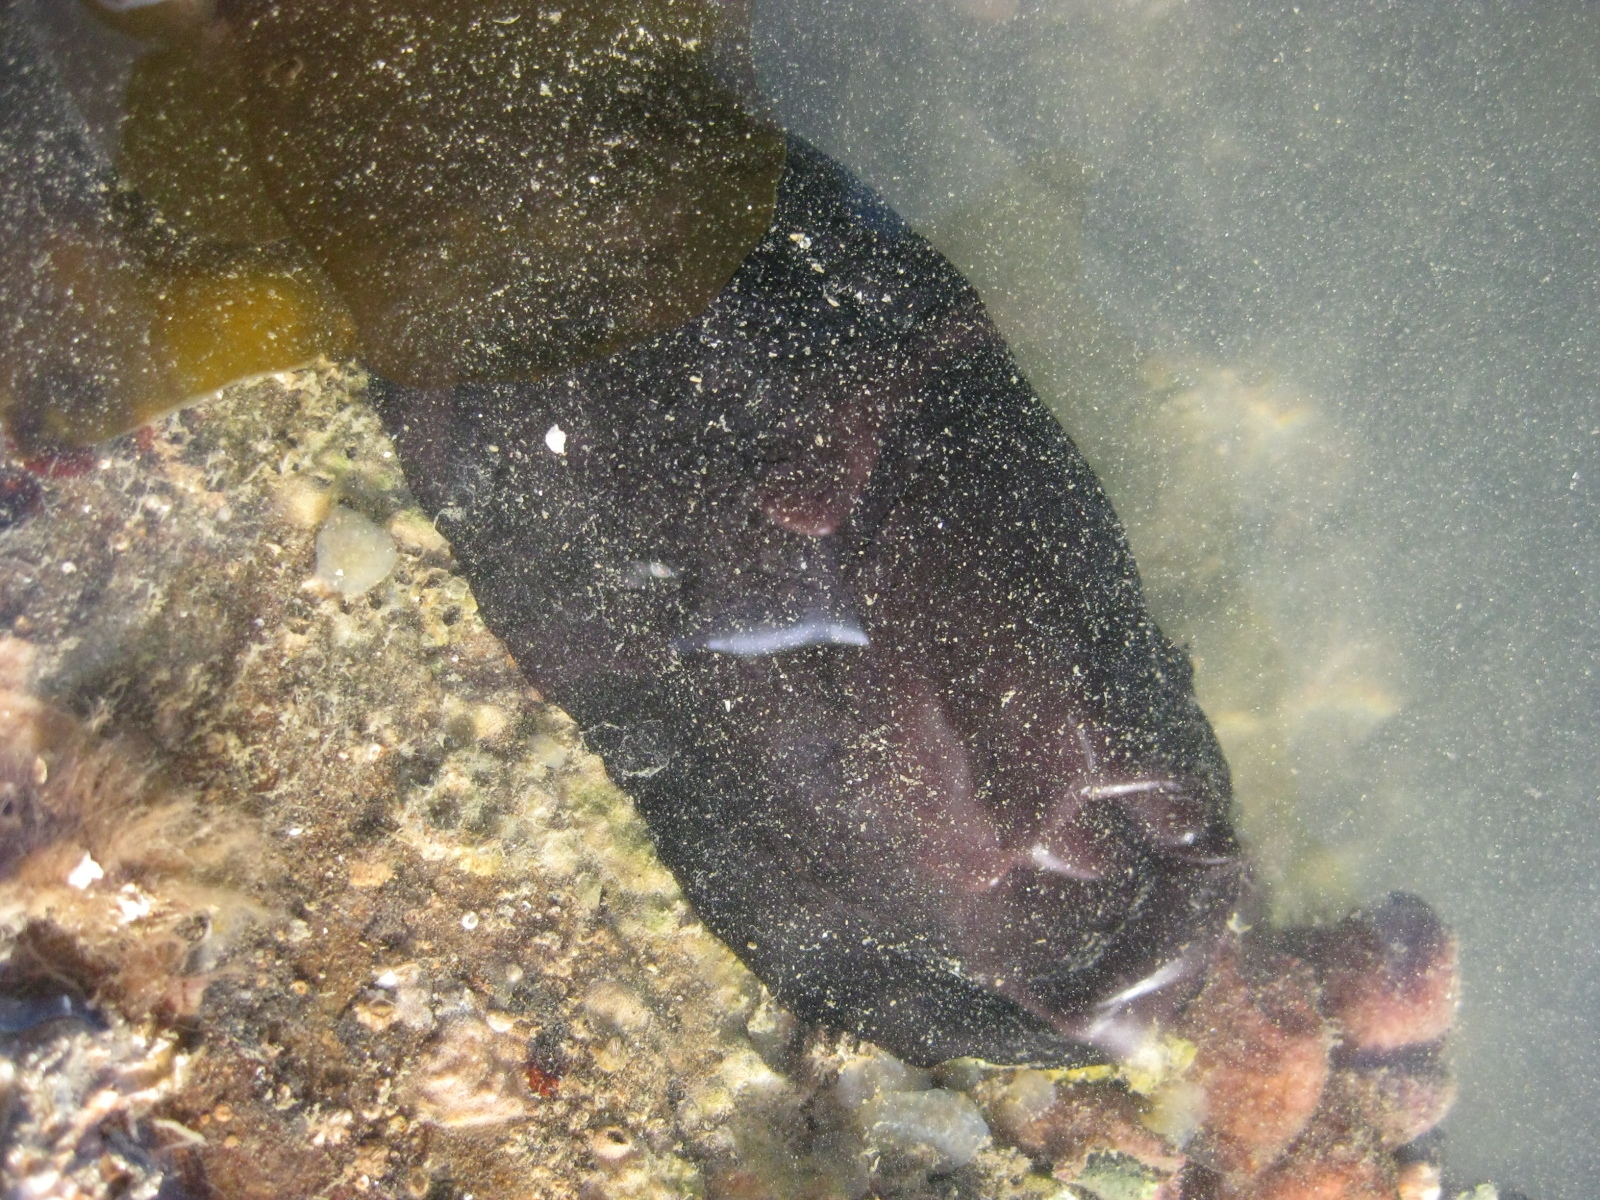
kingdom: Animalia
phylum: Mollusca
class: Gastropoda
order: Lepetellida
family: Fissurellidae
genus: Scutus
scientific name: Scutus breviculus
